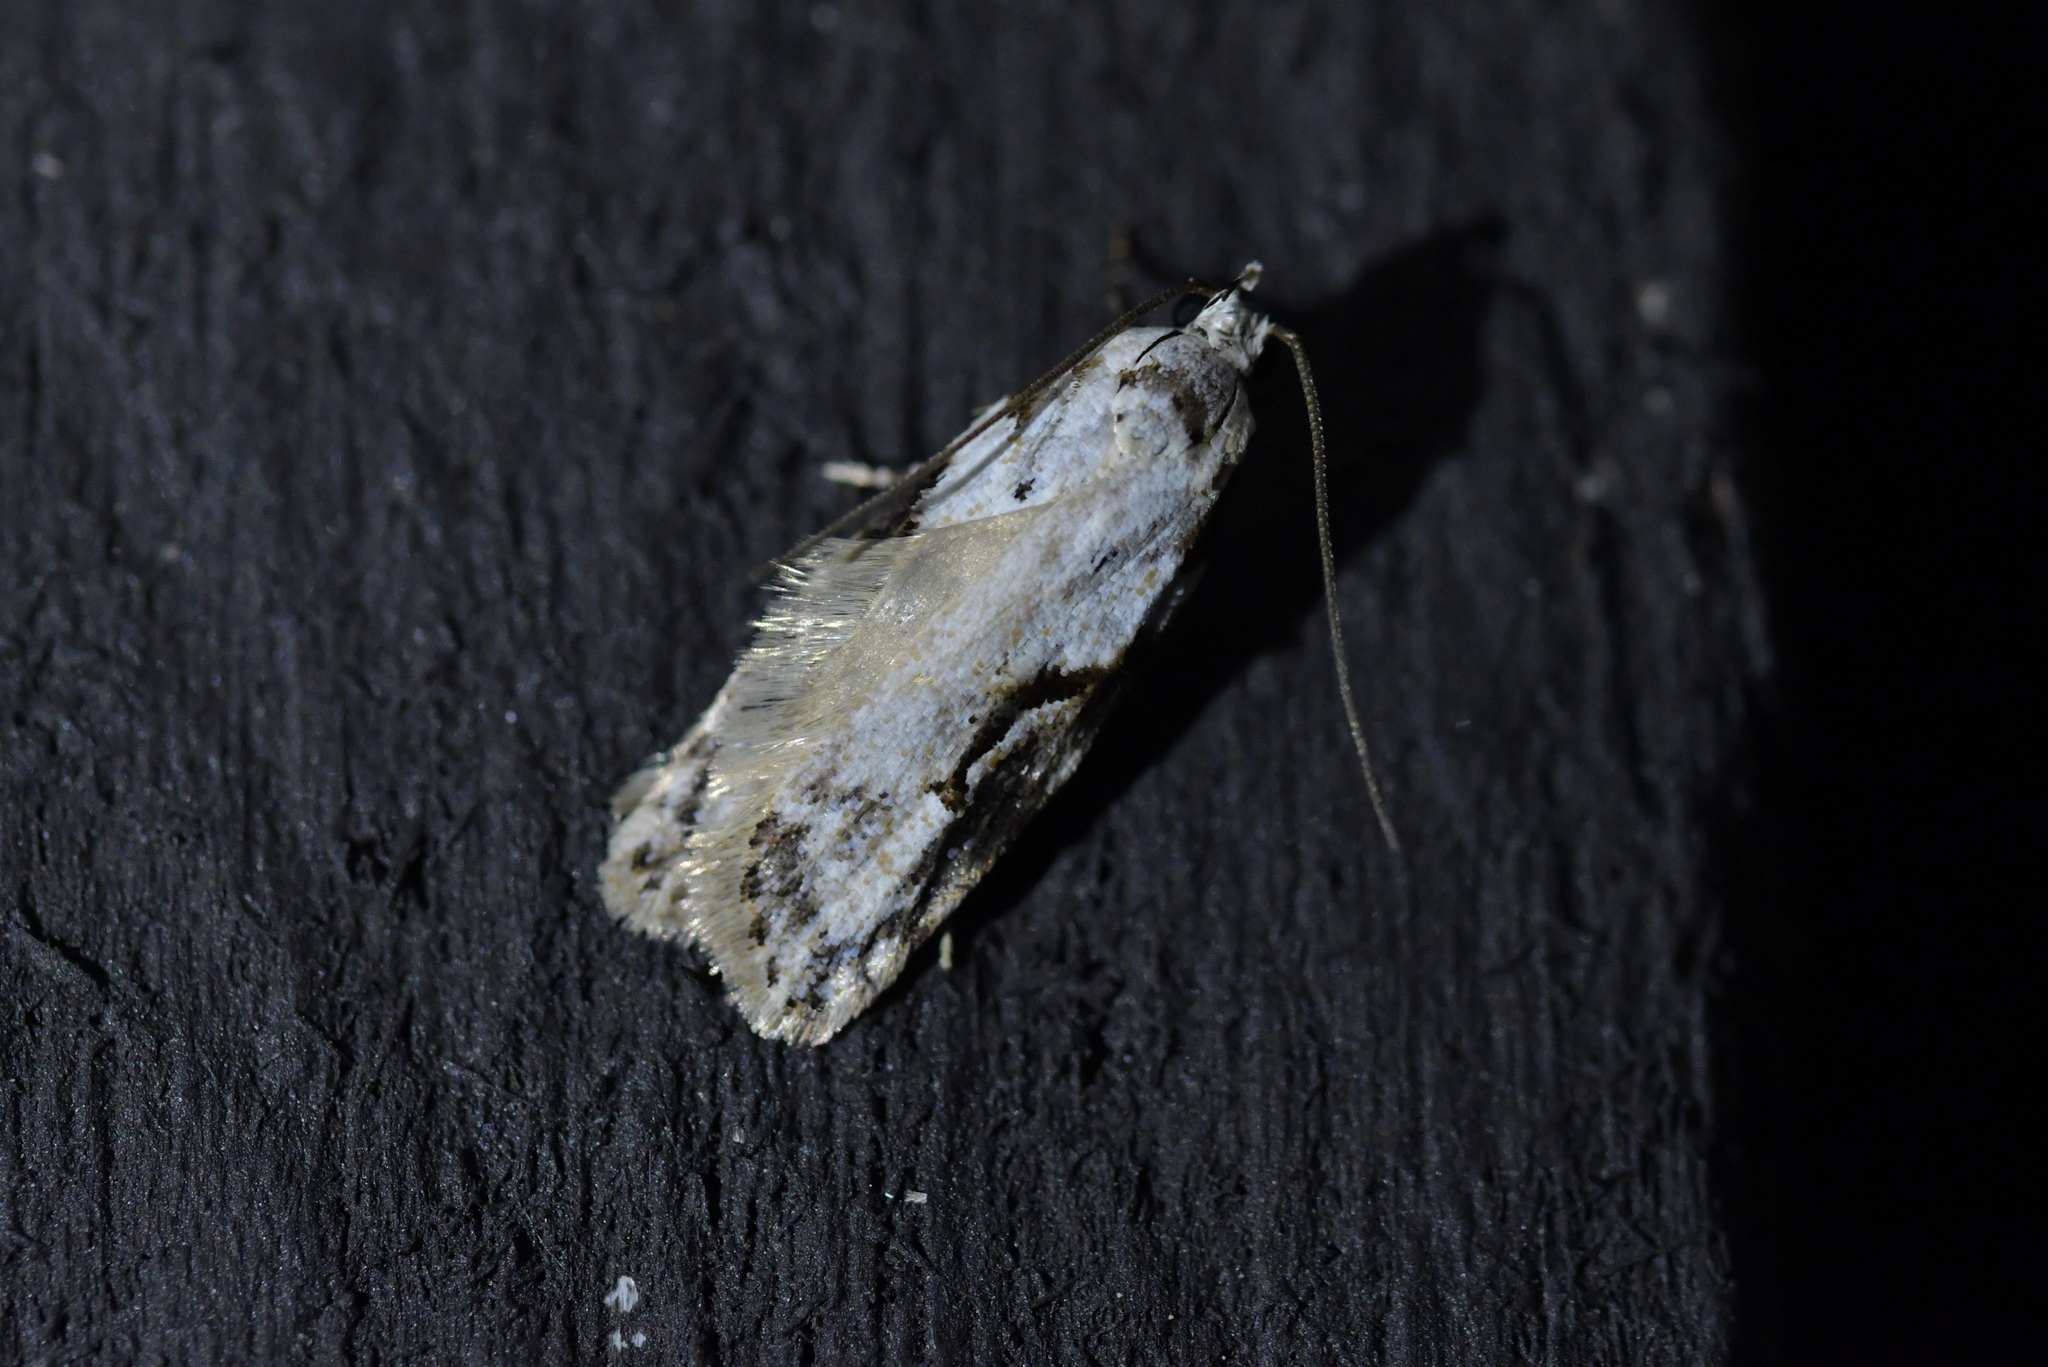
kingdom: Animalia
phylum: Arthropoda
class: Insecta
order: Lepidoptera
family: Oecophoridae
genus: Izatha
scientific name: Izatha mesoschista
